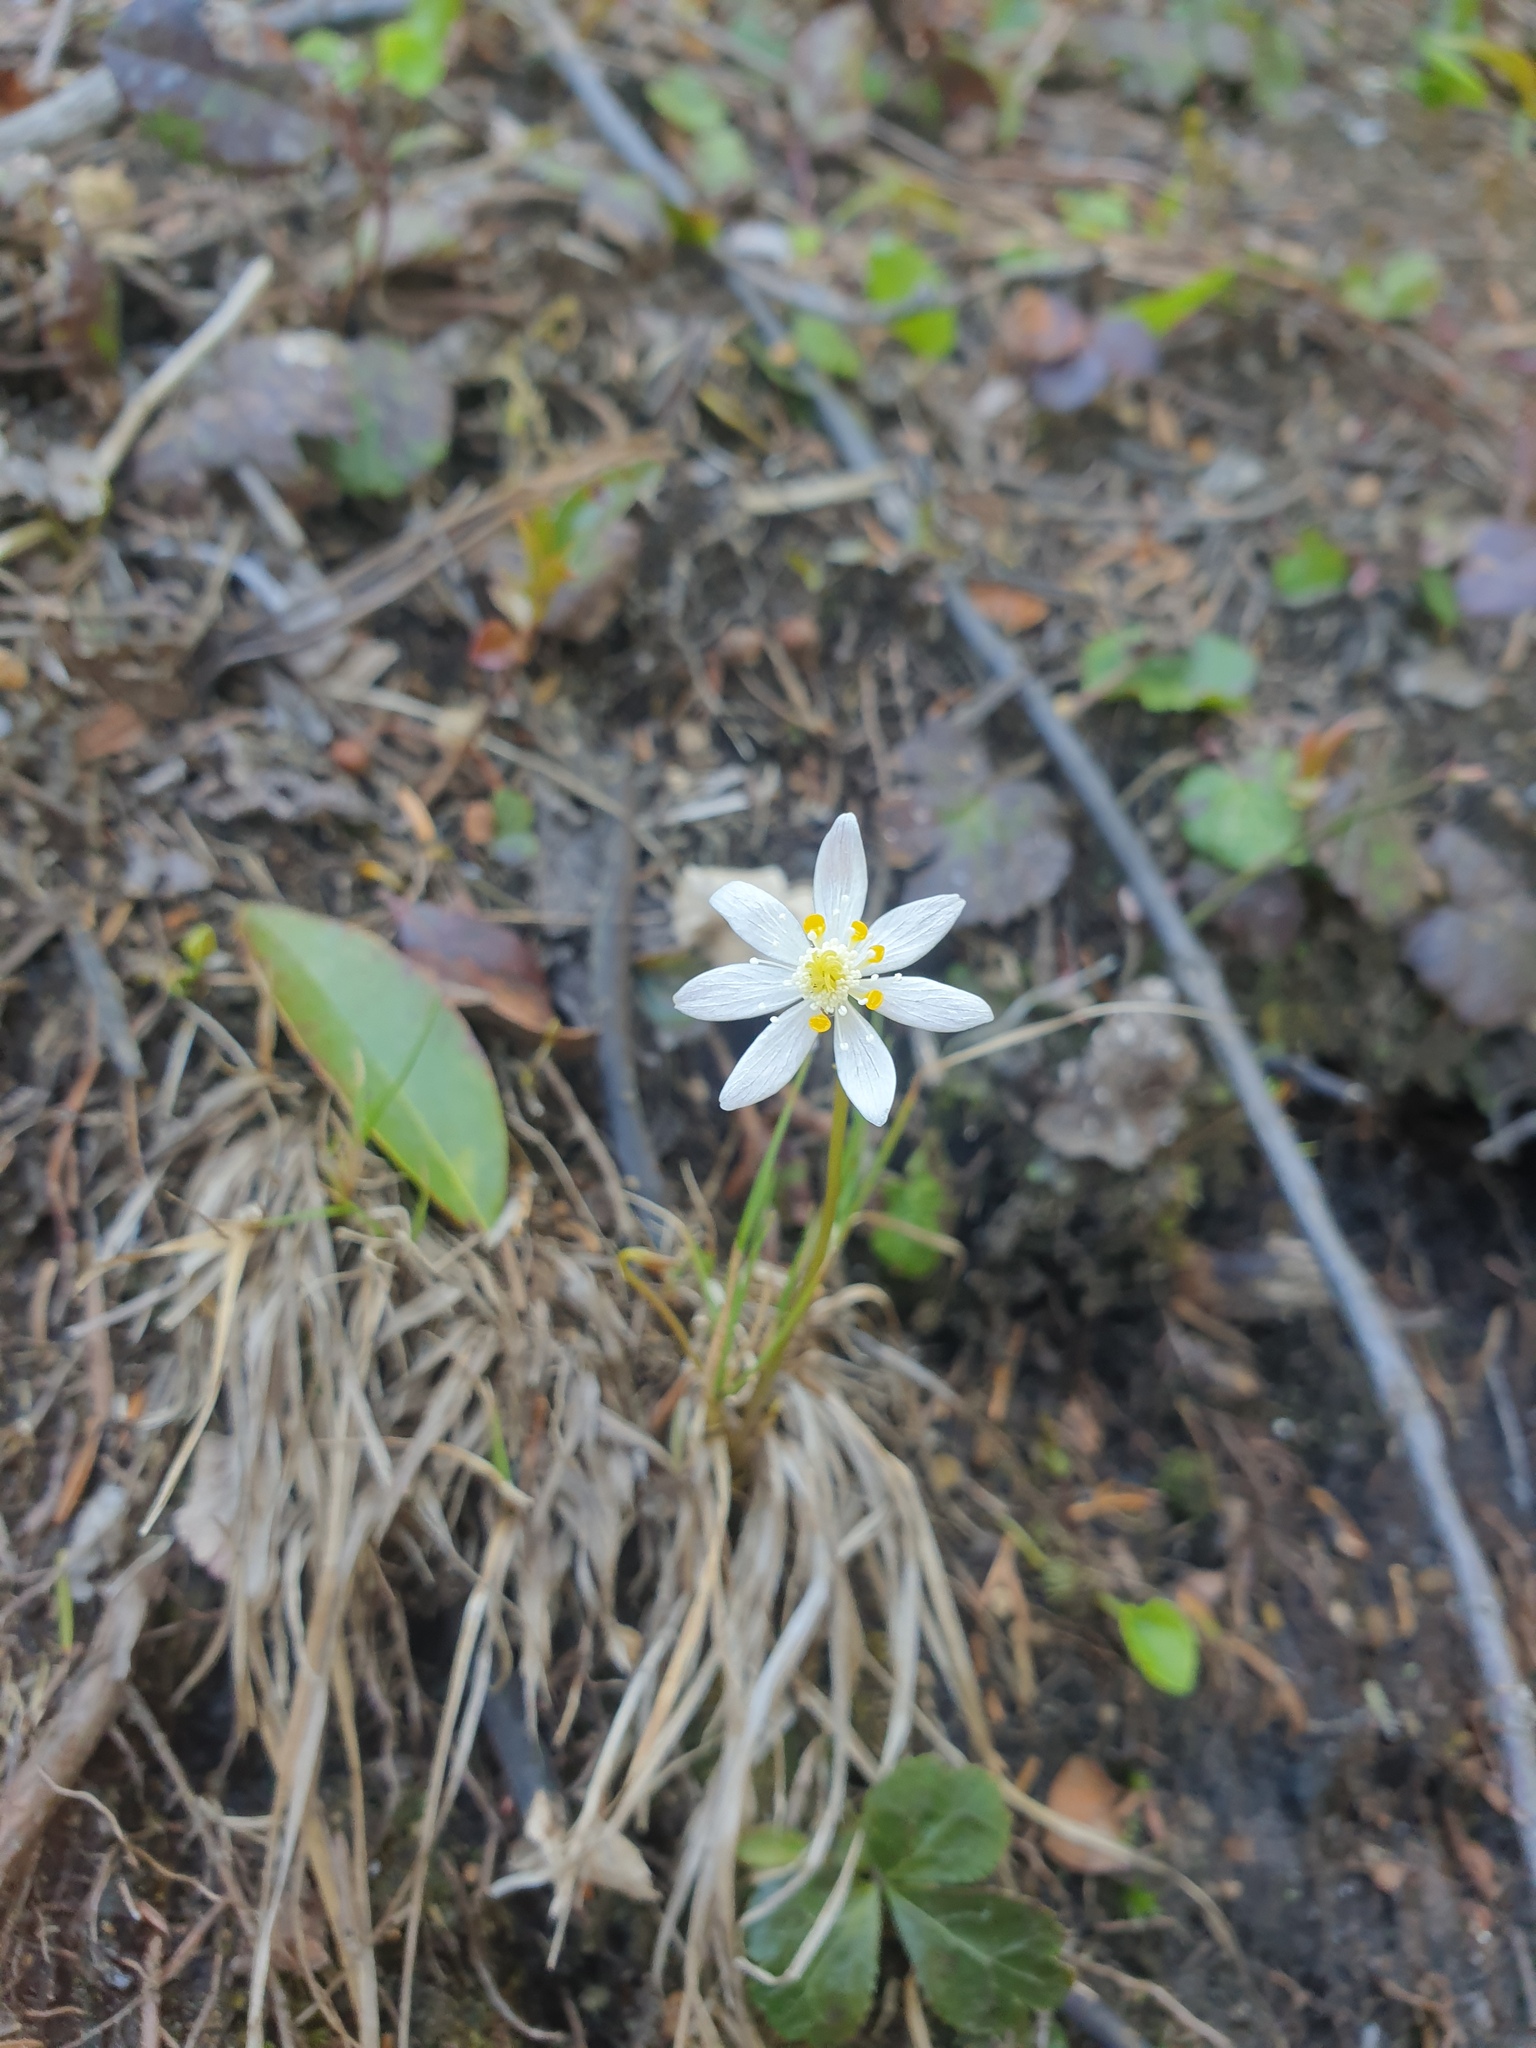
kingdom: Plantae
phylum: Tracheophyta
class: Magnoliopsida
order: Ranunculales
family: Ranunculaceae
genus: Coptis
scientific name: Coptis trifolia
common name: Canker-root
